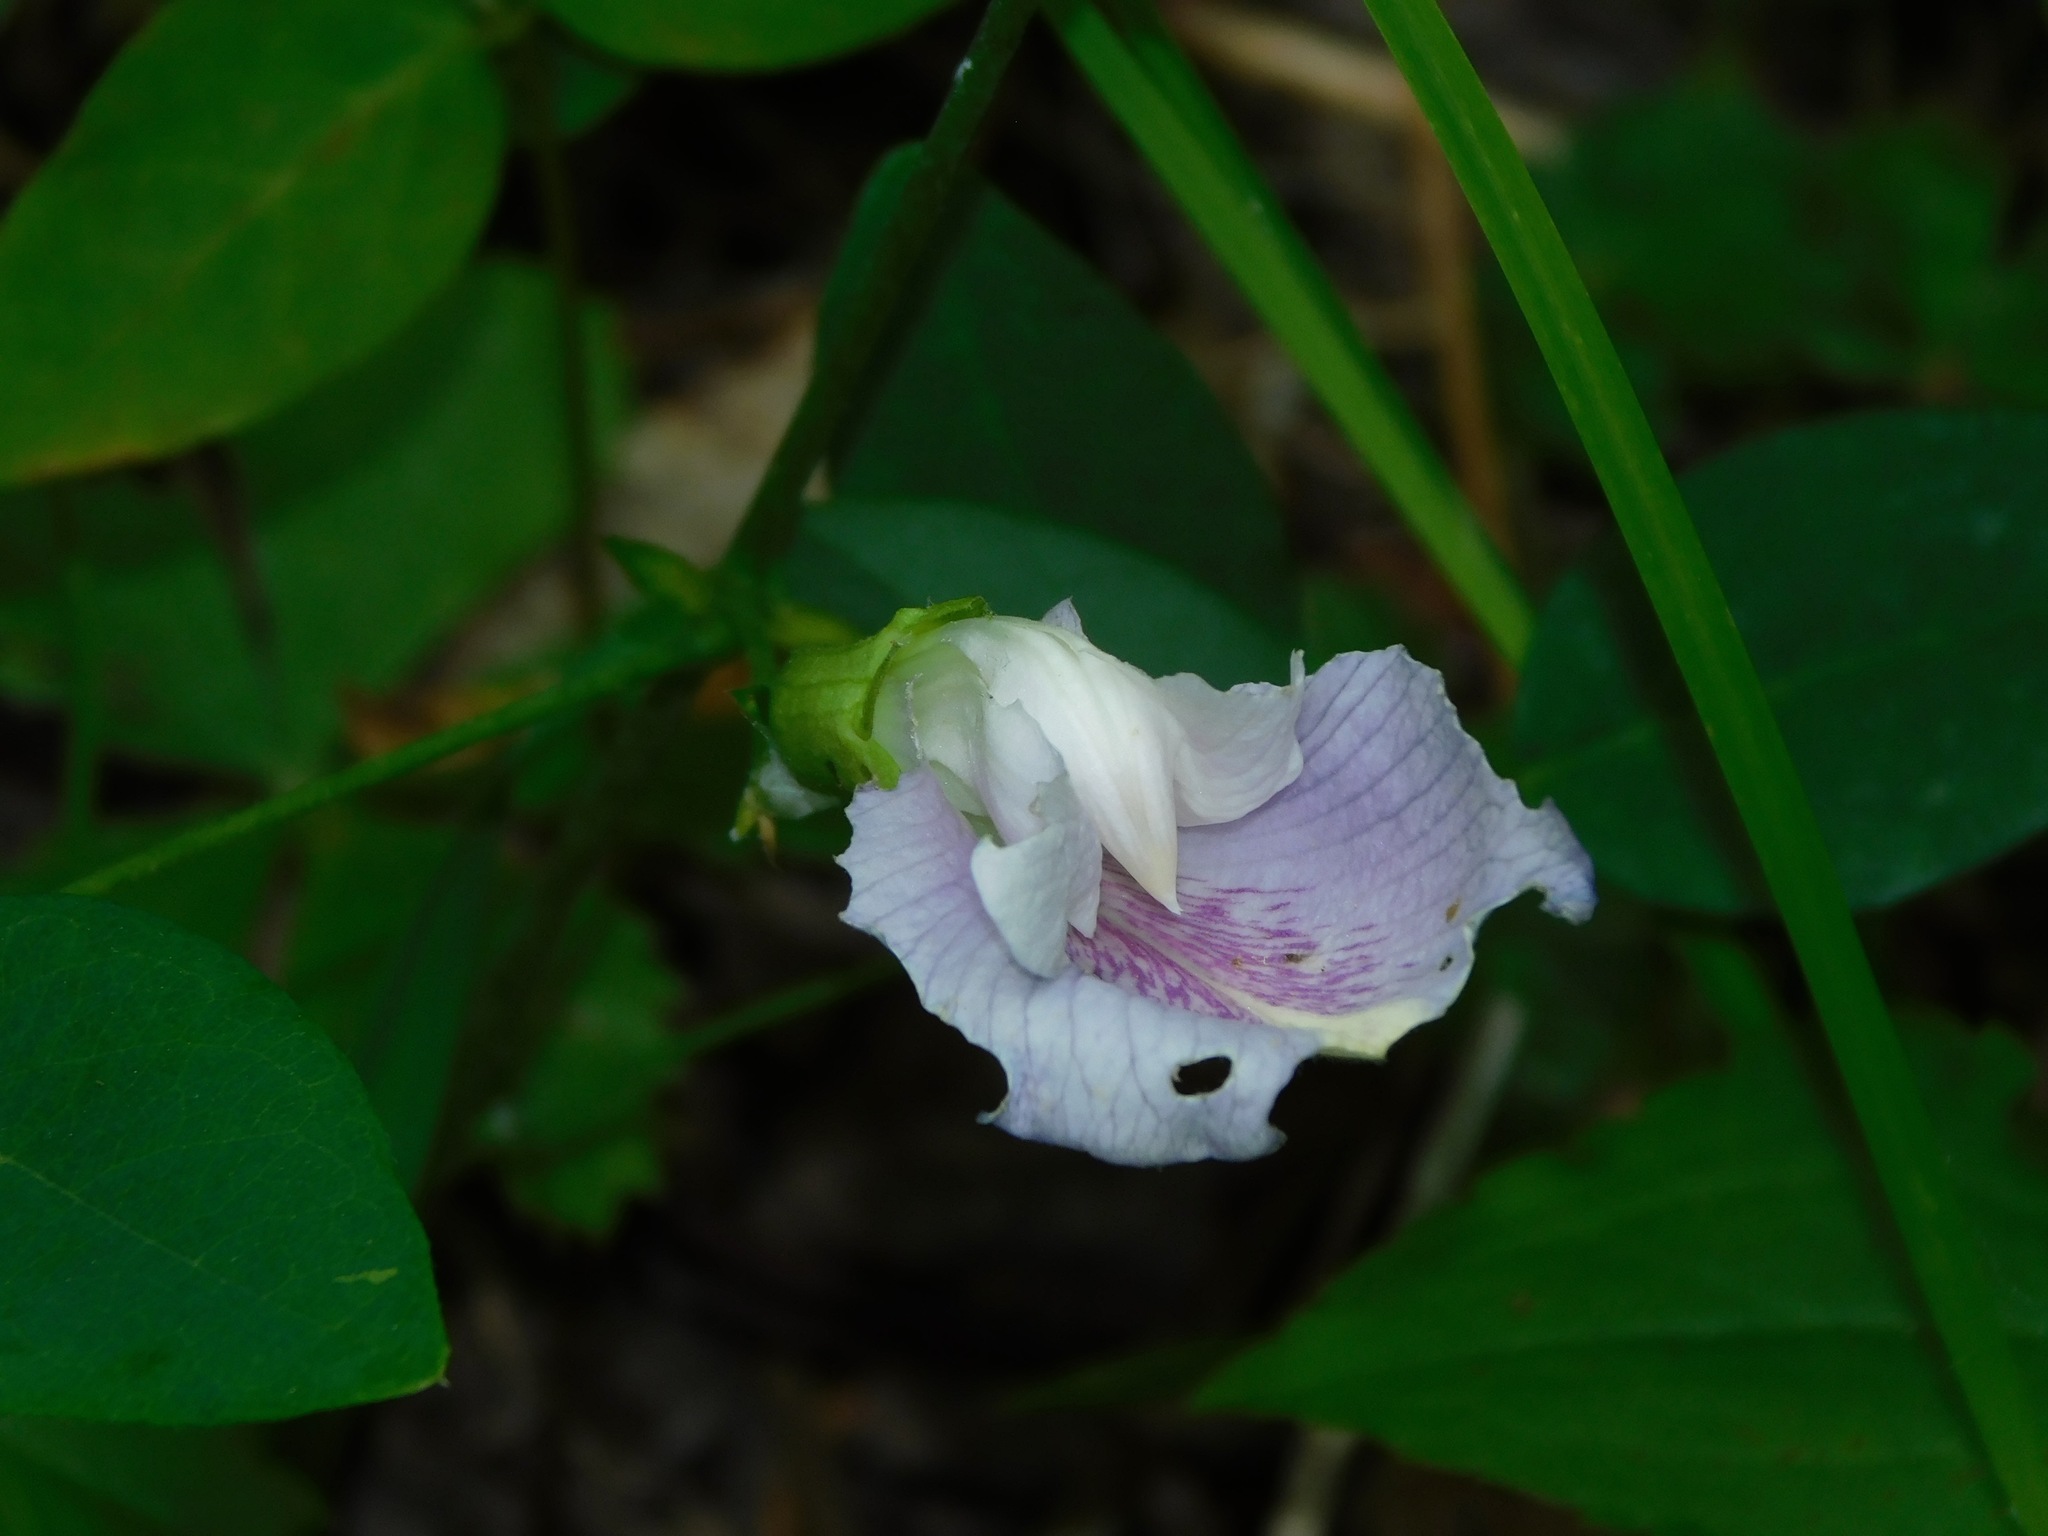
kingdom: Plantae
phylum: Tracheophyta
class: Magnoliopsida
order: Fabales
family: Fabaceae
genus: Clitoria
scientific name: Clitoria mariana
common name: Butterfly-pea
